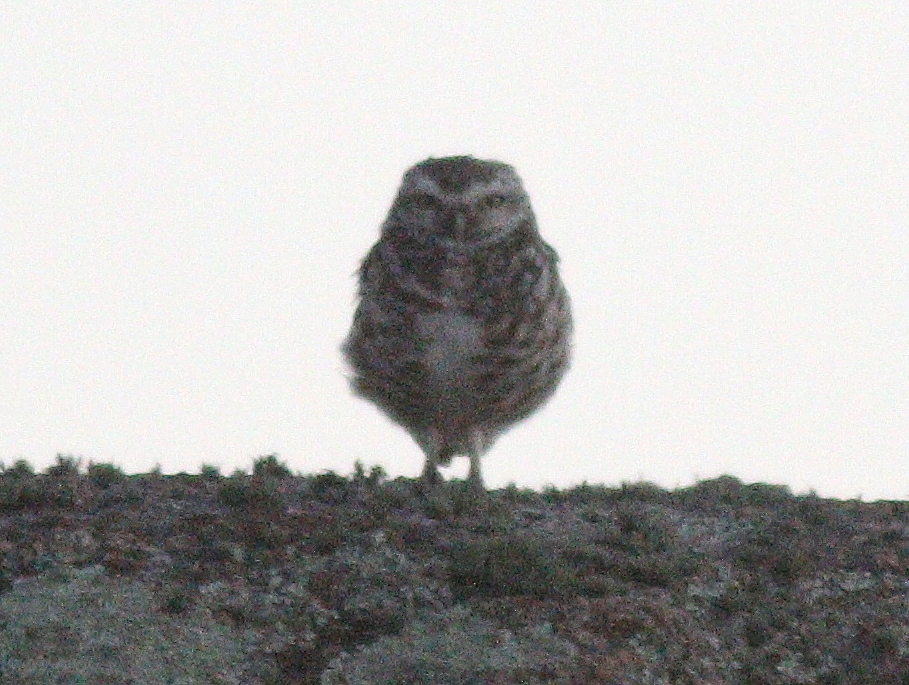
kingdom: Animalia
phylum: Chordata
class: Aves
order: Strigiformes
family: Strigidae
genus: Athene
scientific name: Athene cunicularia
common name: Burrowing owl
